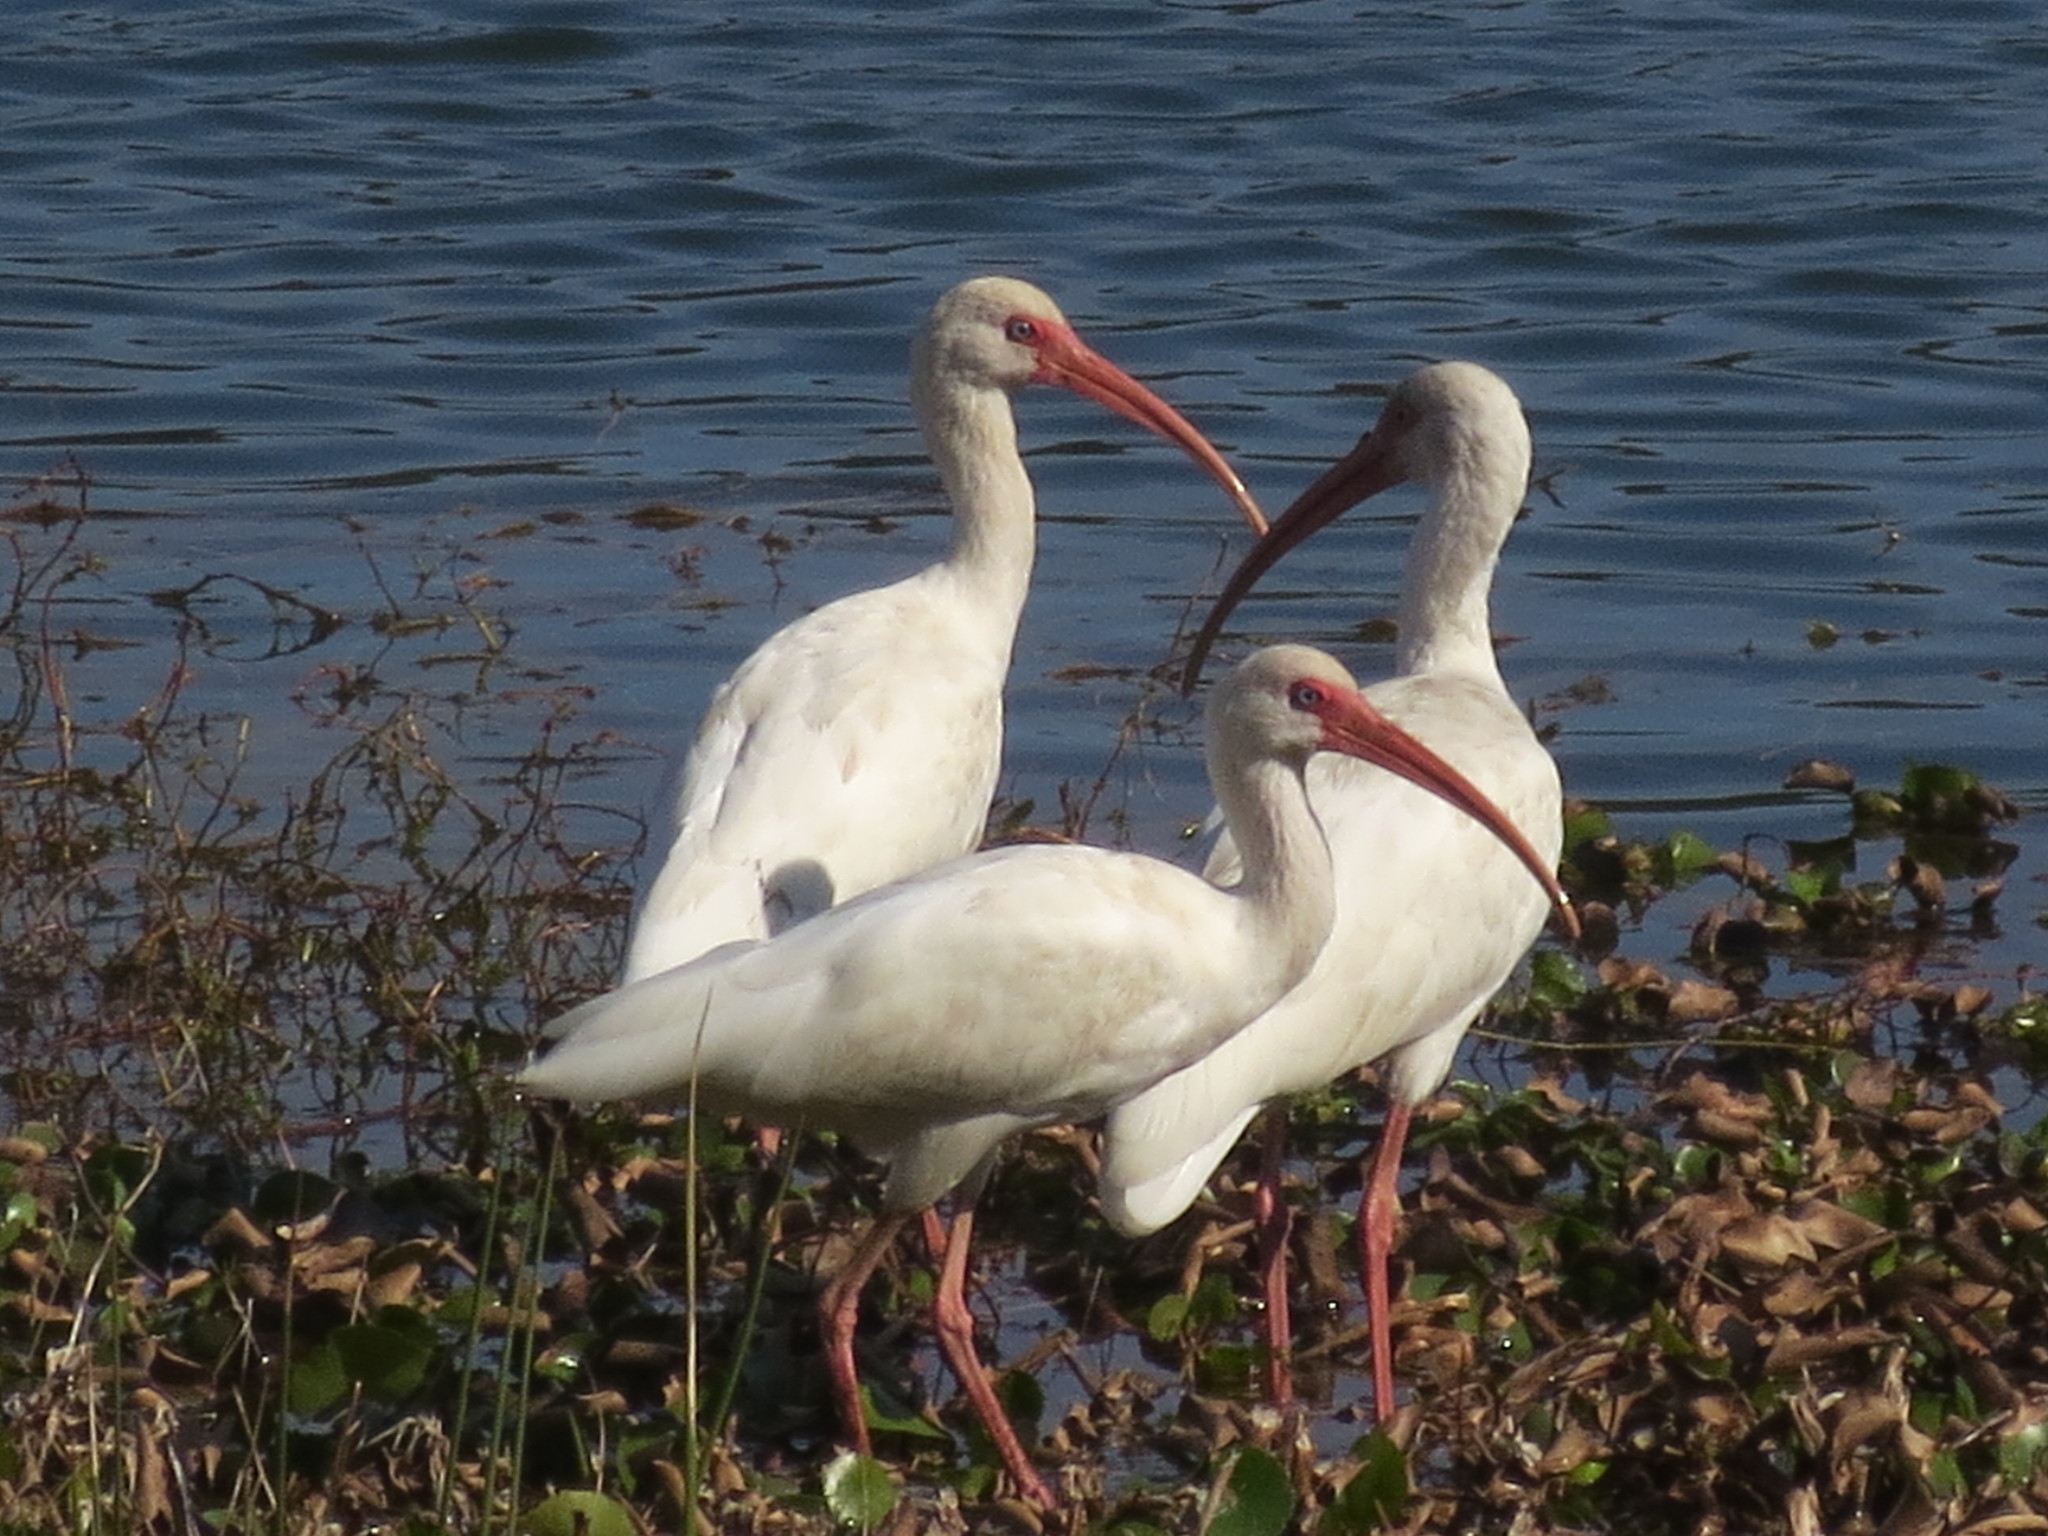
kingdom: Animalia
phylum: Chordata
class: Aves
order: Pelecaniformes
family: Threskiornithidae
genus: Eudocimus
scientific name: Eudocimus albus
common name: White ibis
